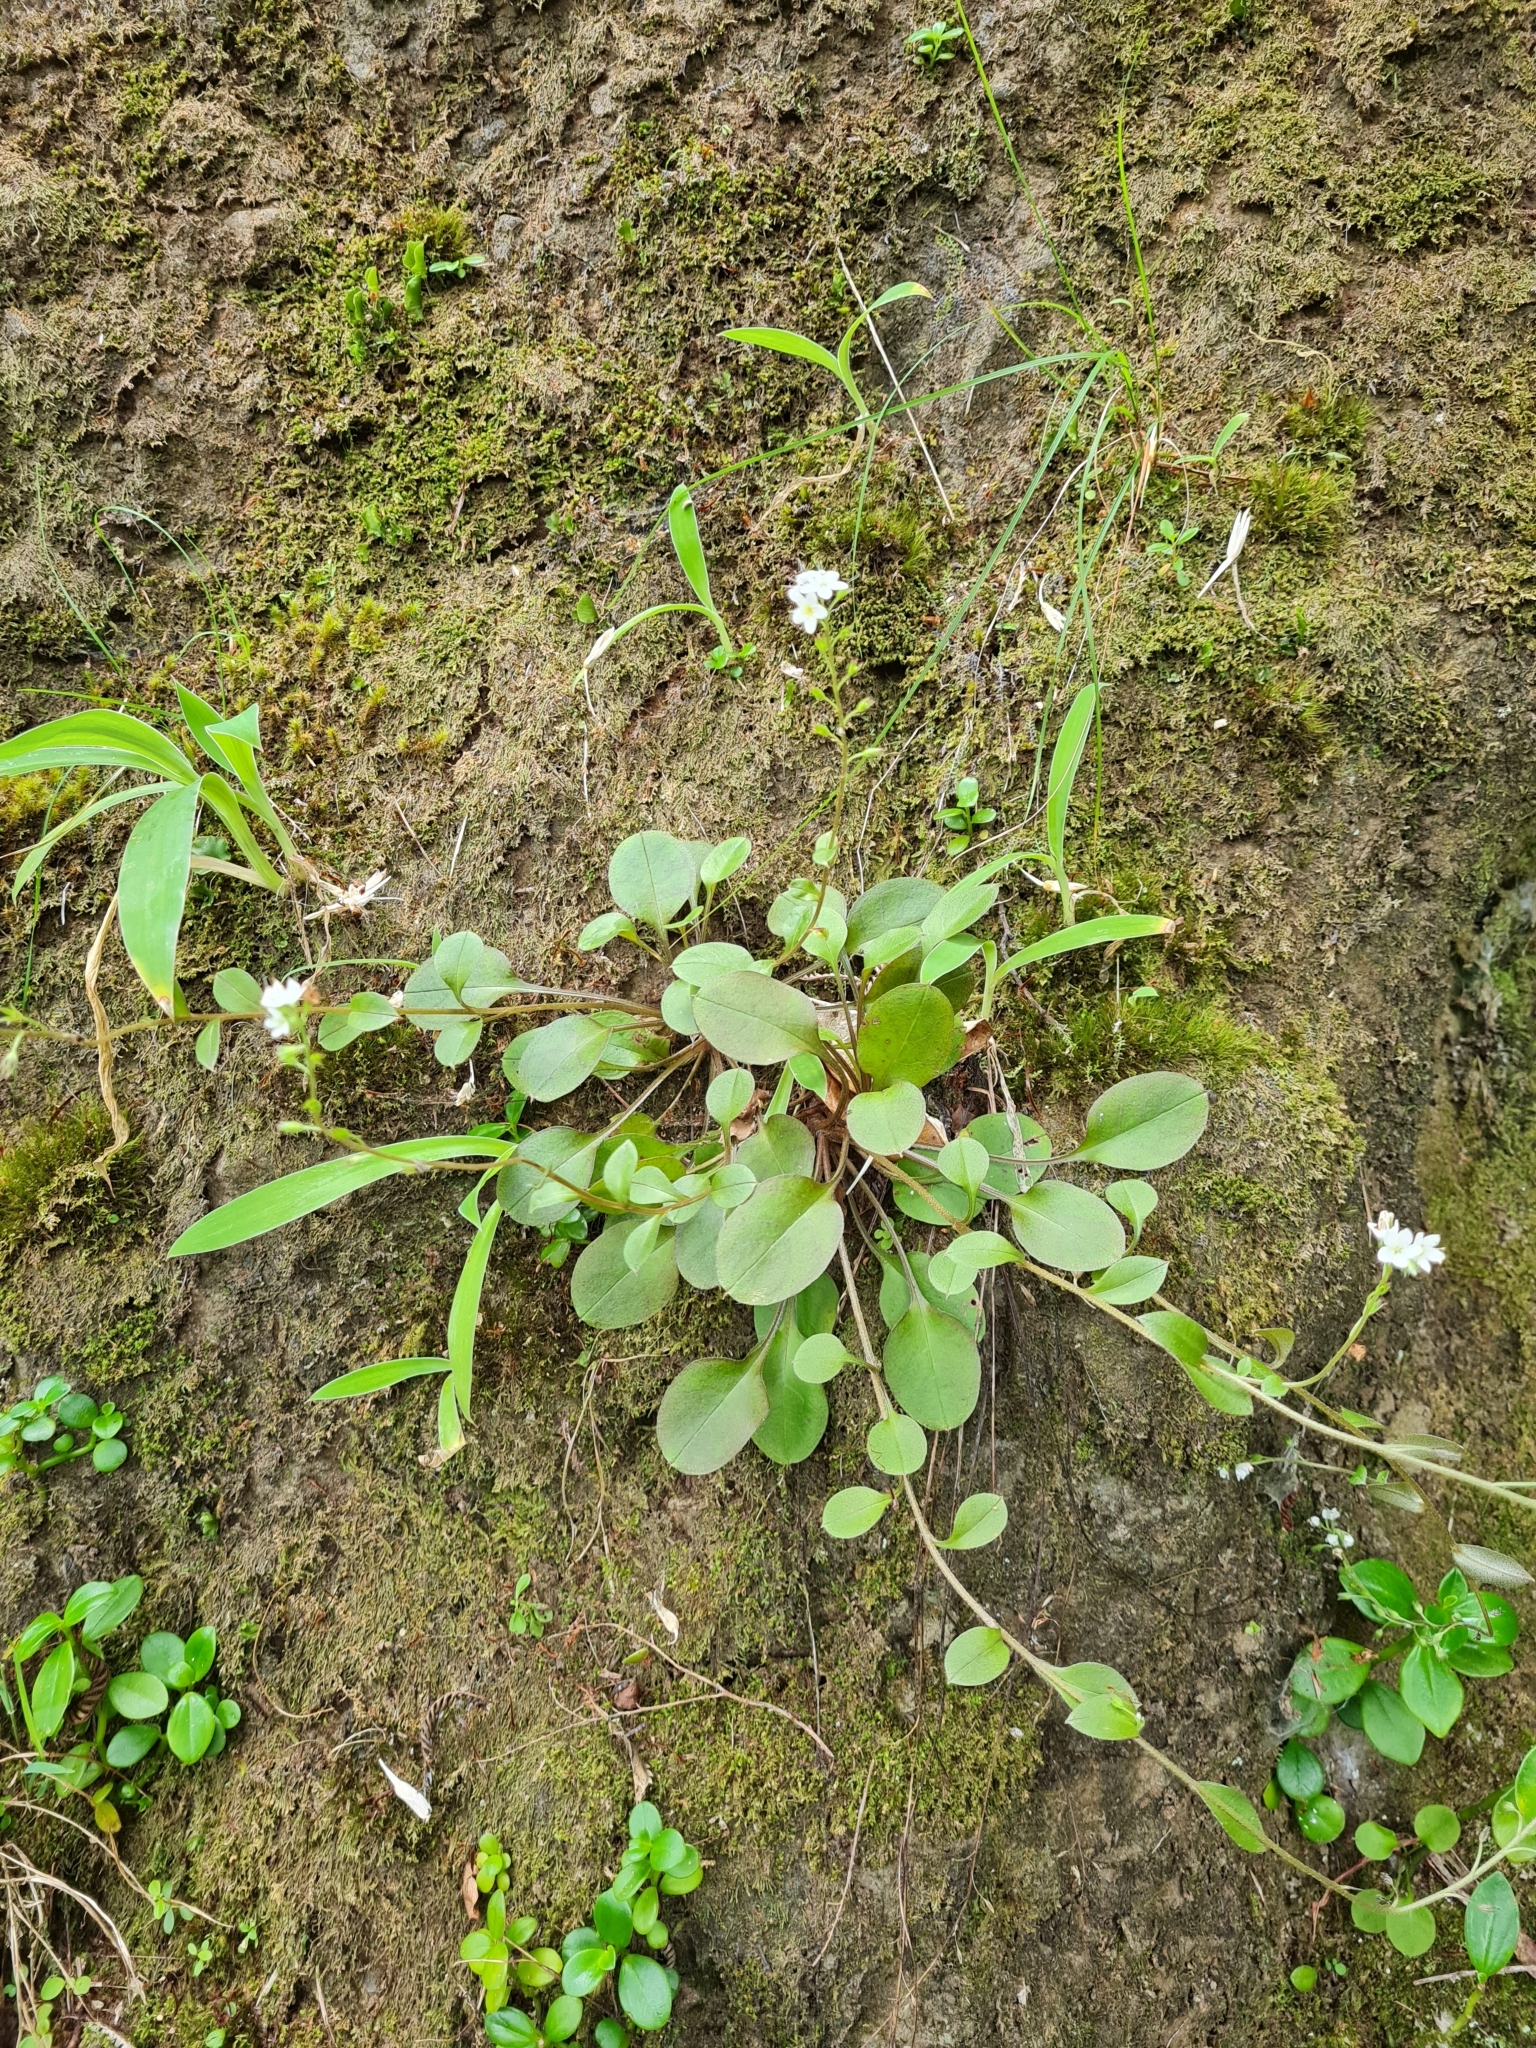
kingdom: Plantae
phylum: Tracheophyta
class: Magnoliopsida
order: Boraginales
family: Boraginaceae
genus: Myosotis
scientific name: Myosotis pansa
